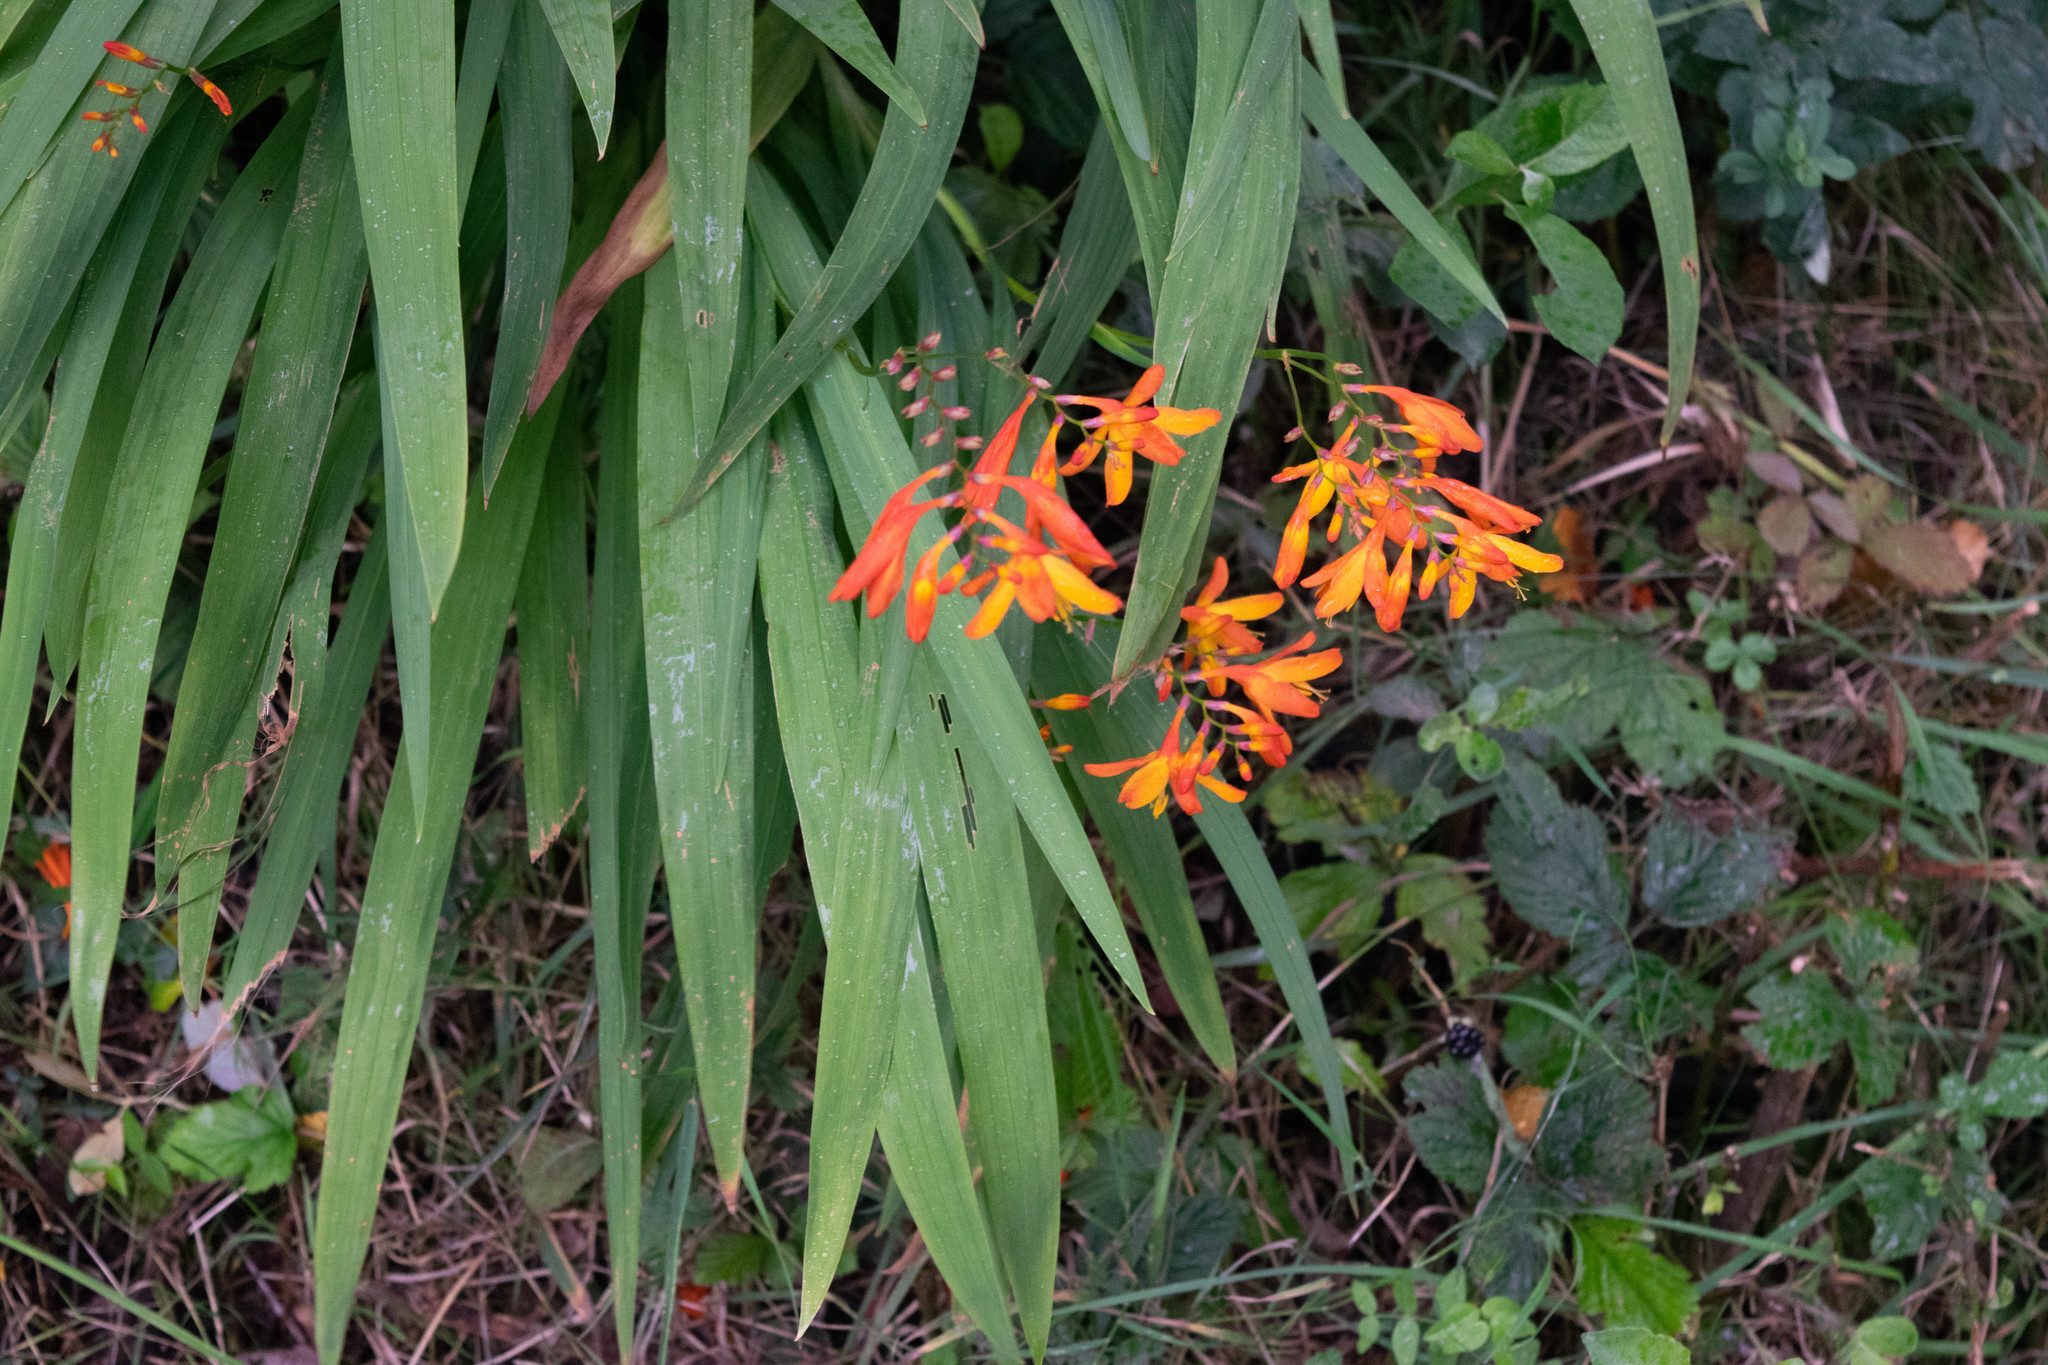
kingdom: Plantae
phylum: Tracheophyta
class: Liliopsida
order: Asparagales
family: Iridaceae
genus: Crocosmia
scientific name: Crocosmia crocosmiiflora
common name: Montbretia
